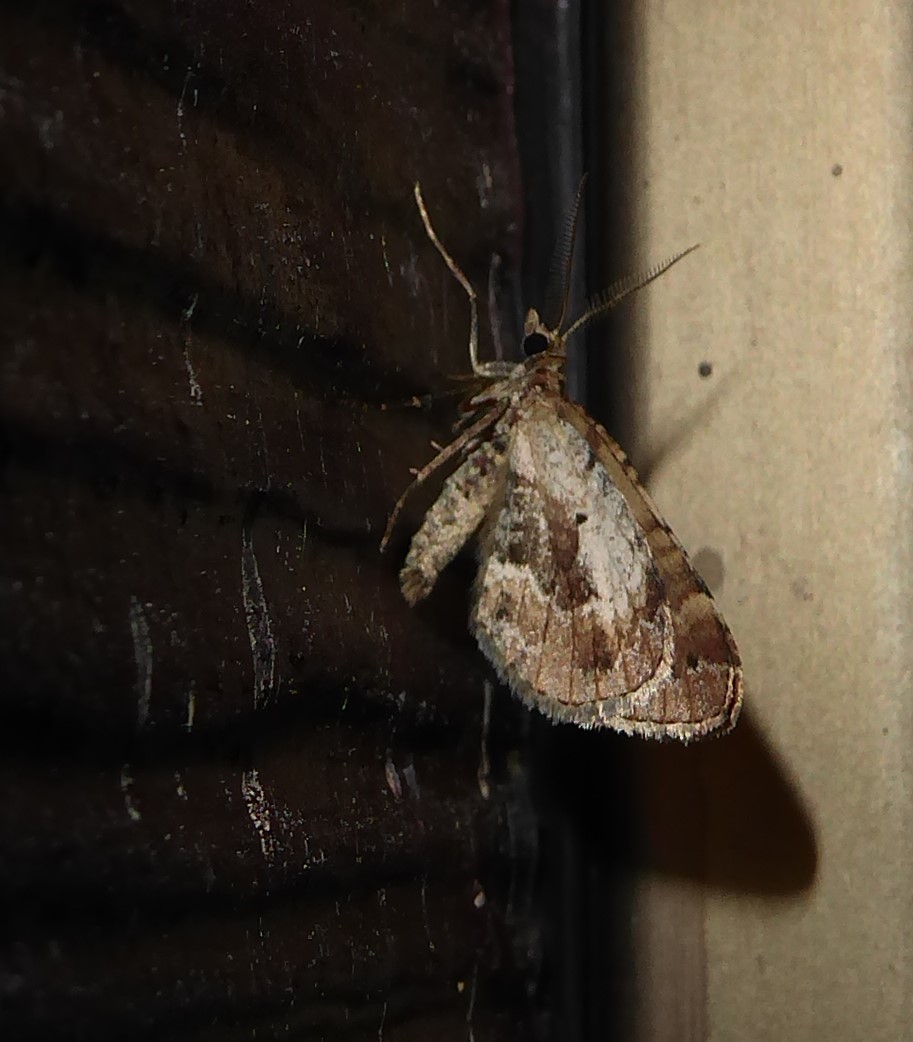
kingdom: Animalia
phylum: Arthropoda
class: Insecta
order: Lepidoptera
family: Geometridae
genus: Asaphodes
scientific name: Asaphodes aegrota
